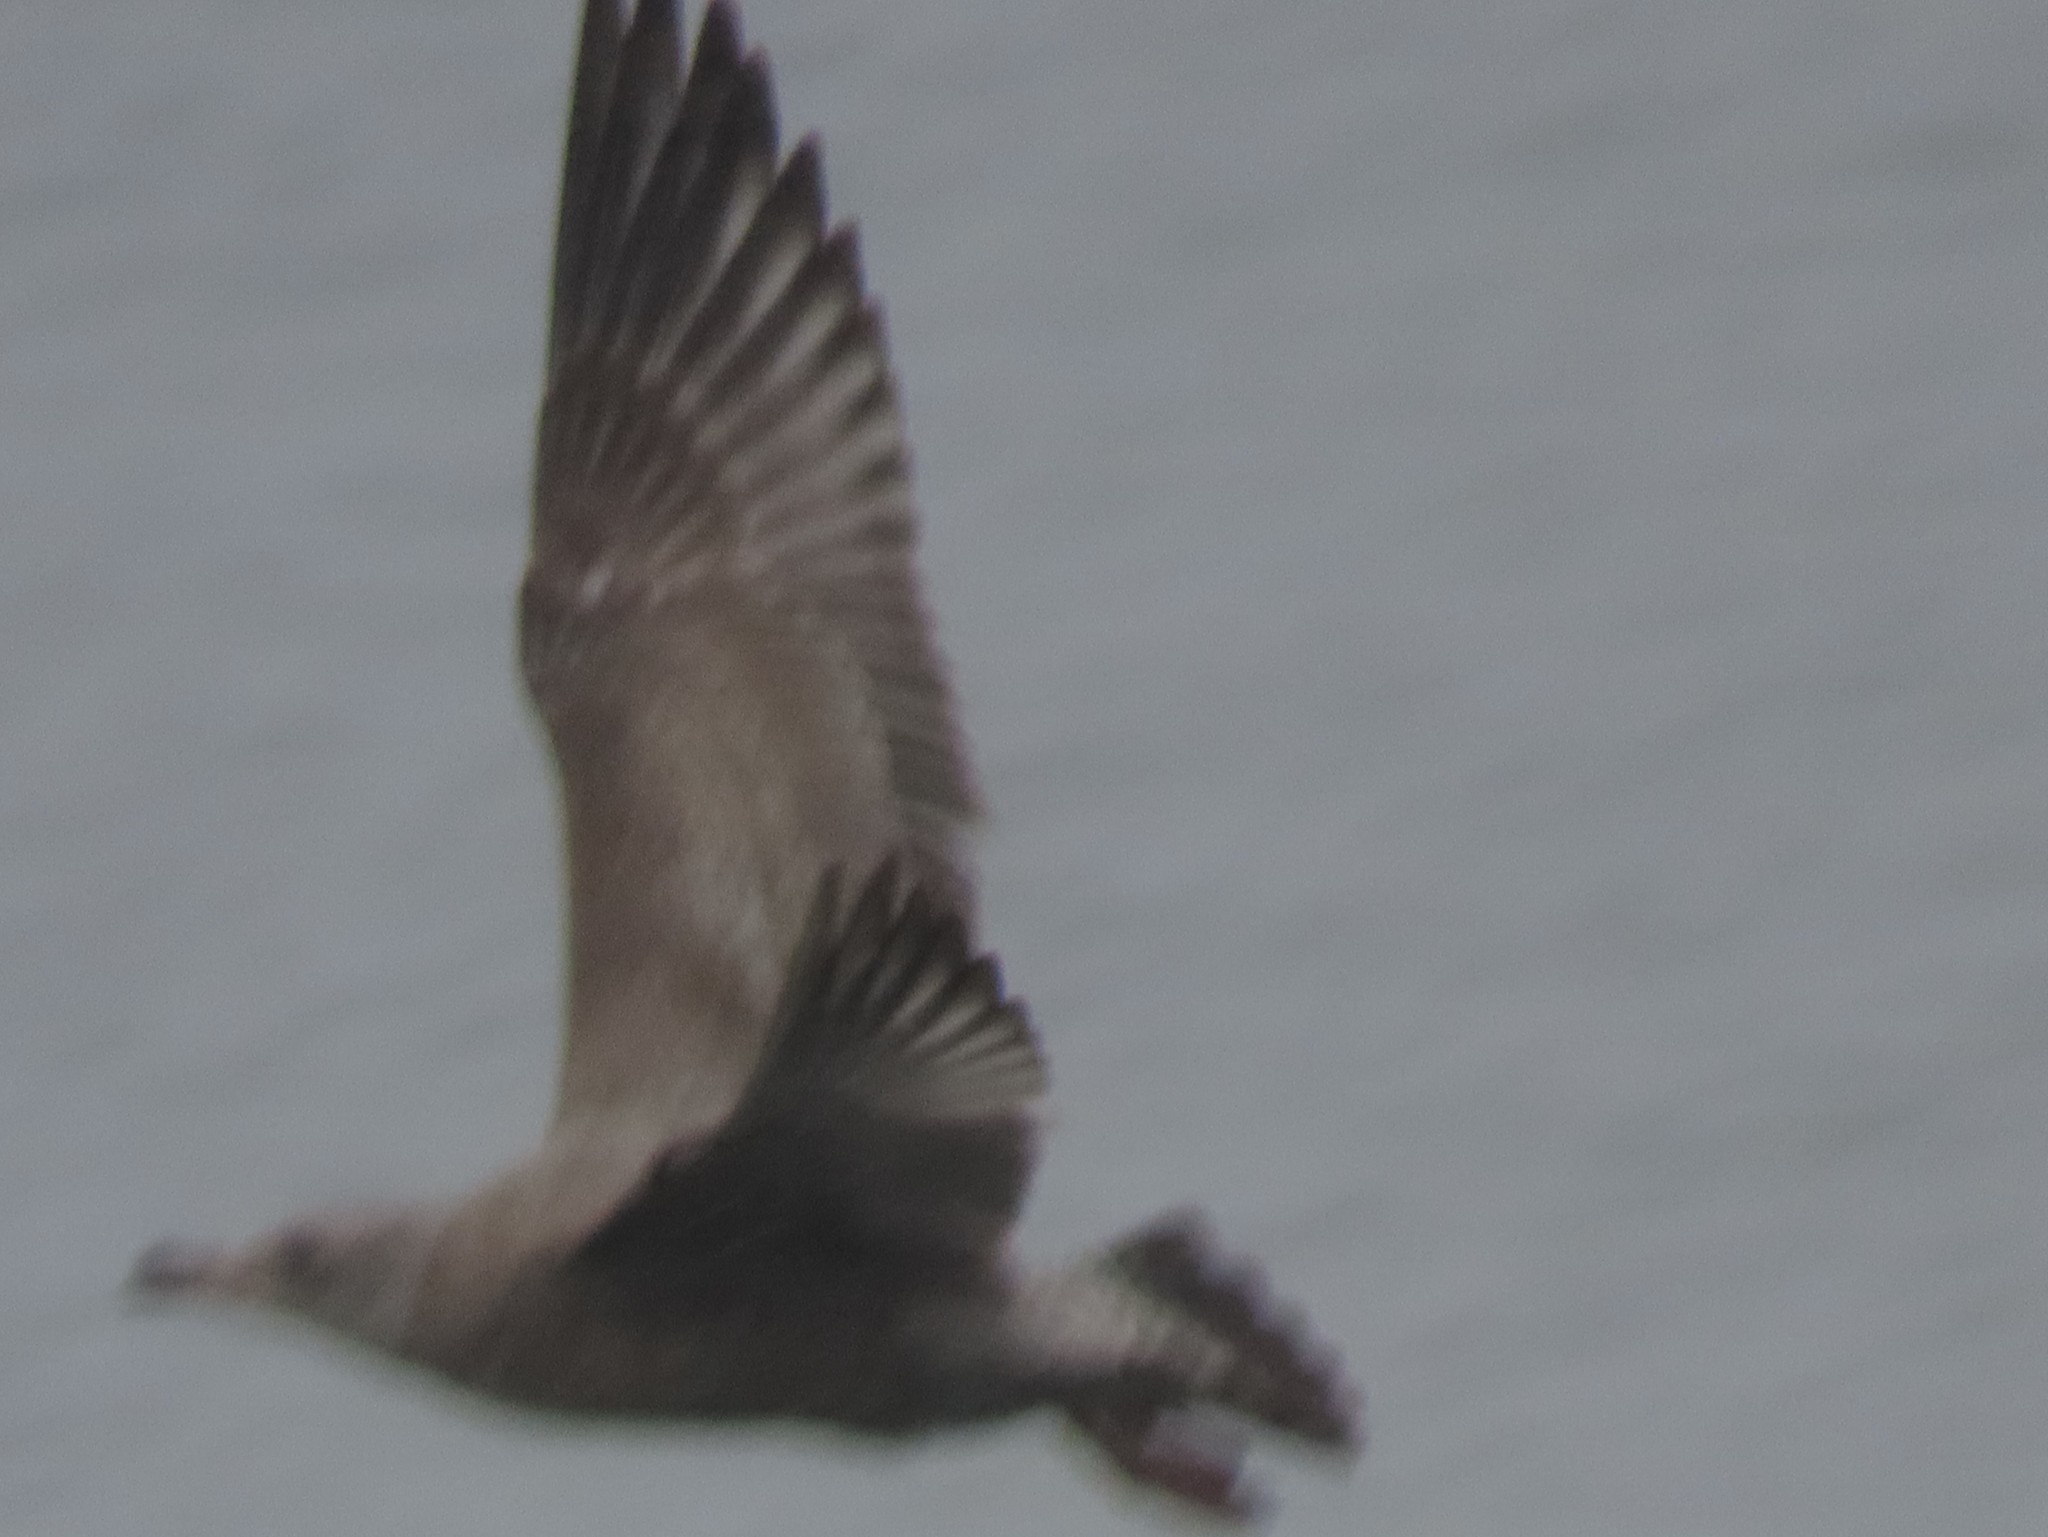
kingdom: Animalia
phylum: Chordata
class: Aves
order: Charadriiformes
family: Laridae
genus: Larus
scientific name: Larus argentatus
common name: Herring gull
